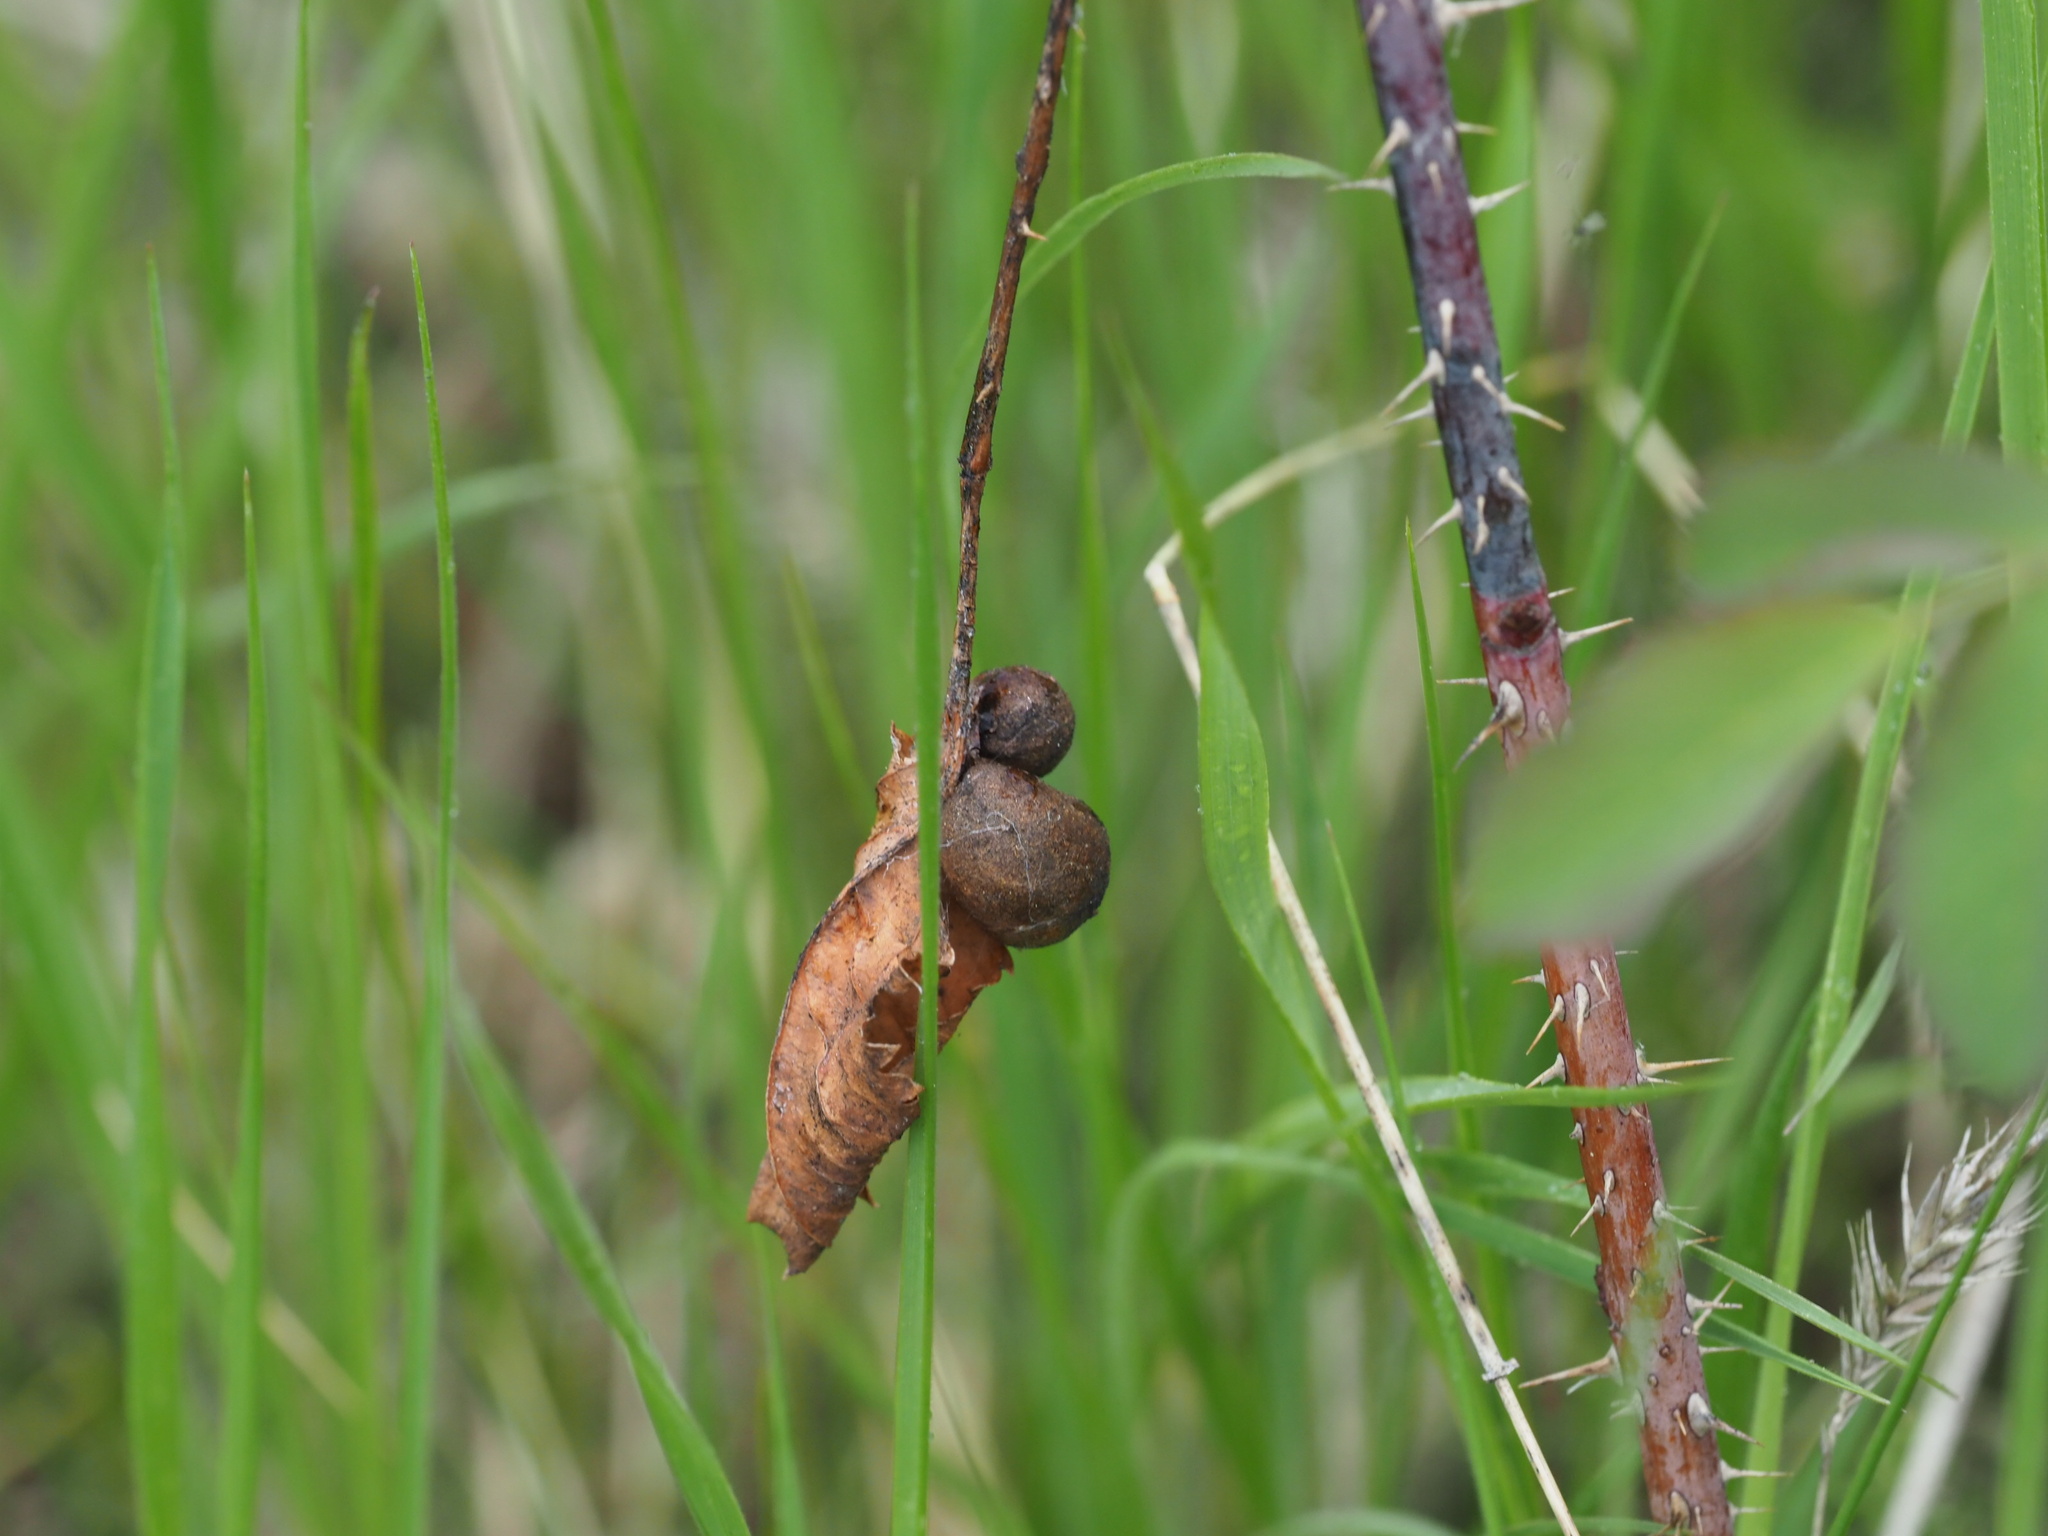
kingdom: Animalia
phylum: Arthropoda
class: Insecta
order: Hymenoptera
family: Cynipidae
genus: Diplolepis
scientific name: Diplolepis variabilis
